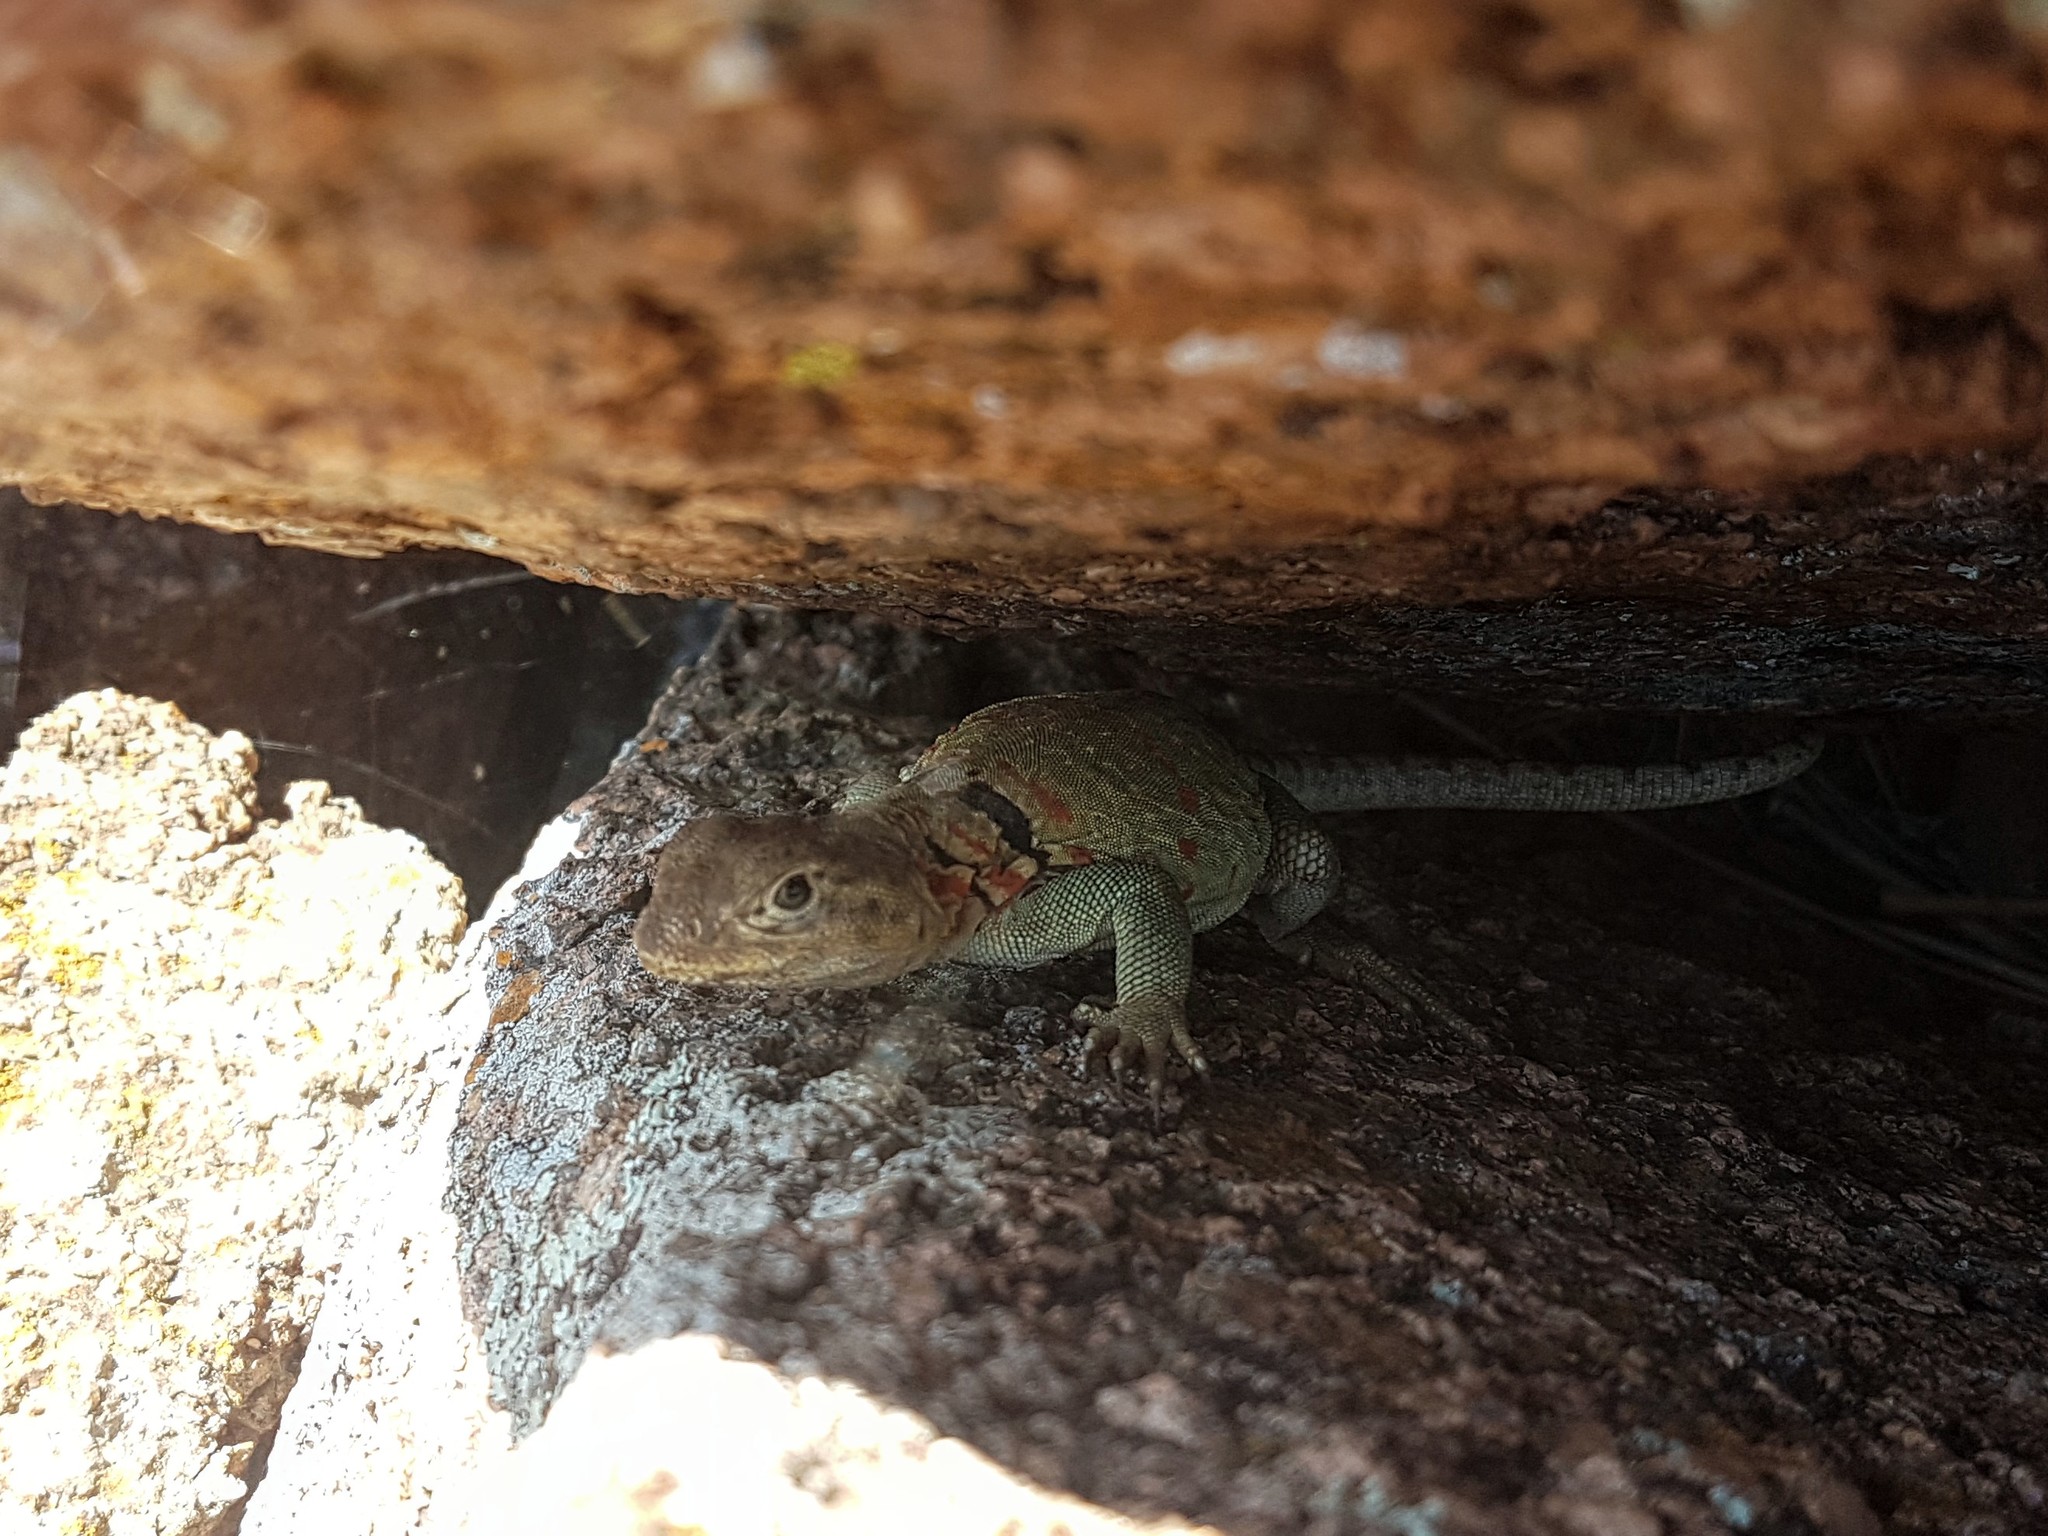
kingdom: Animalia
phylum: Chordata
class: Squamata
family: Crotaphytidae
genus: Crotaphytus
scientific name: Crotaphytus collaris
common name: Collared lizard
